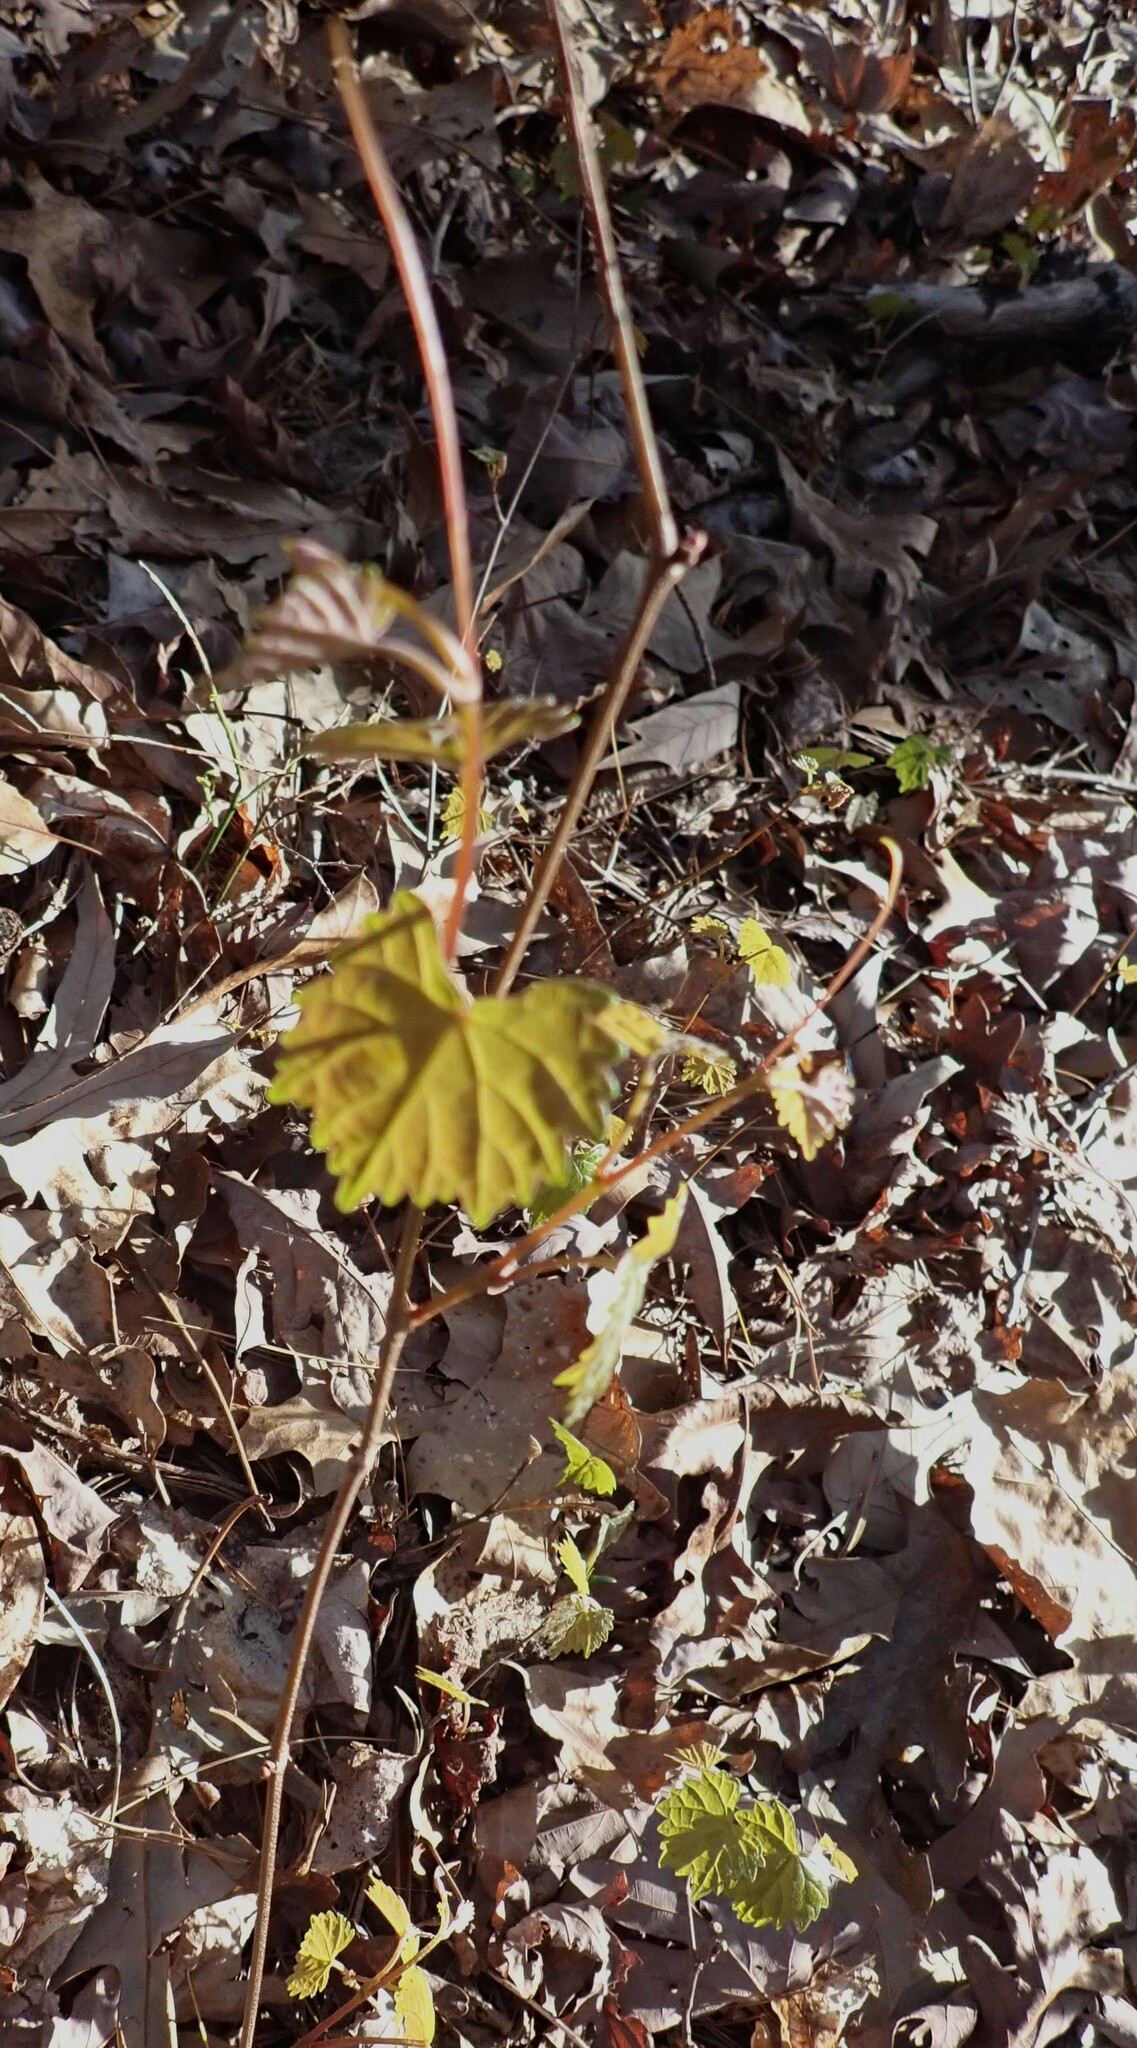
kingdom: Plantae
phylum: Tracheophyta
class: Magnoliopsida
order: Vitales
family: Vitaceae
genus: Vitis
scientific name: Vitis rotundifolia
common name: Muscadine grape
